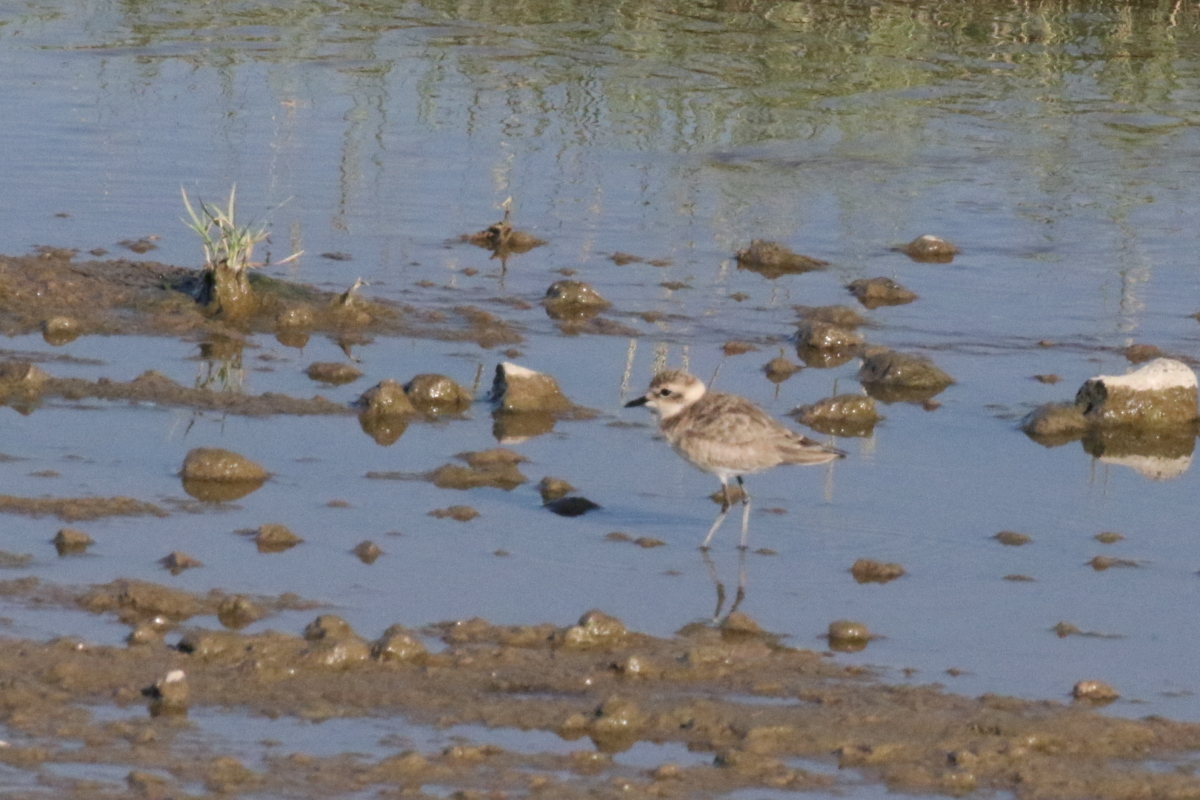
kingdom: Animalia
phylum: Chordata
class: Aves
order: Charadriiformes
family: Charadriidae
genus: Anarhynchus
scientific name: Anarhynchus
